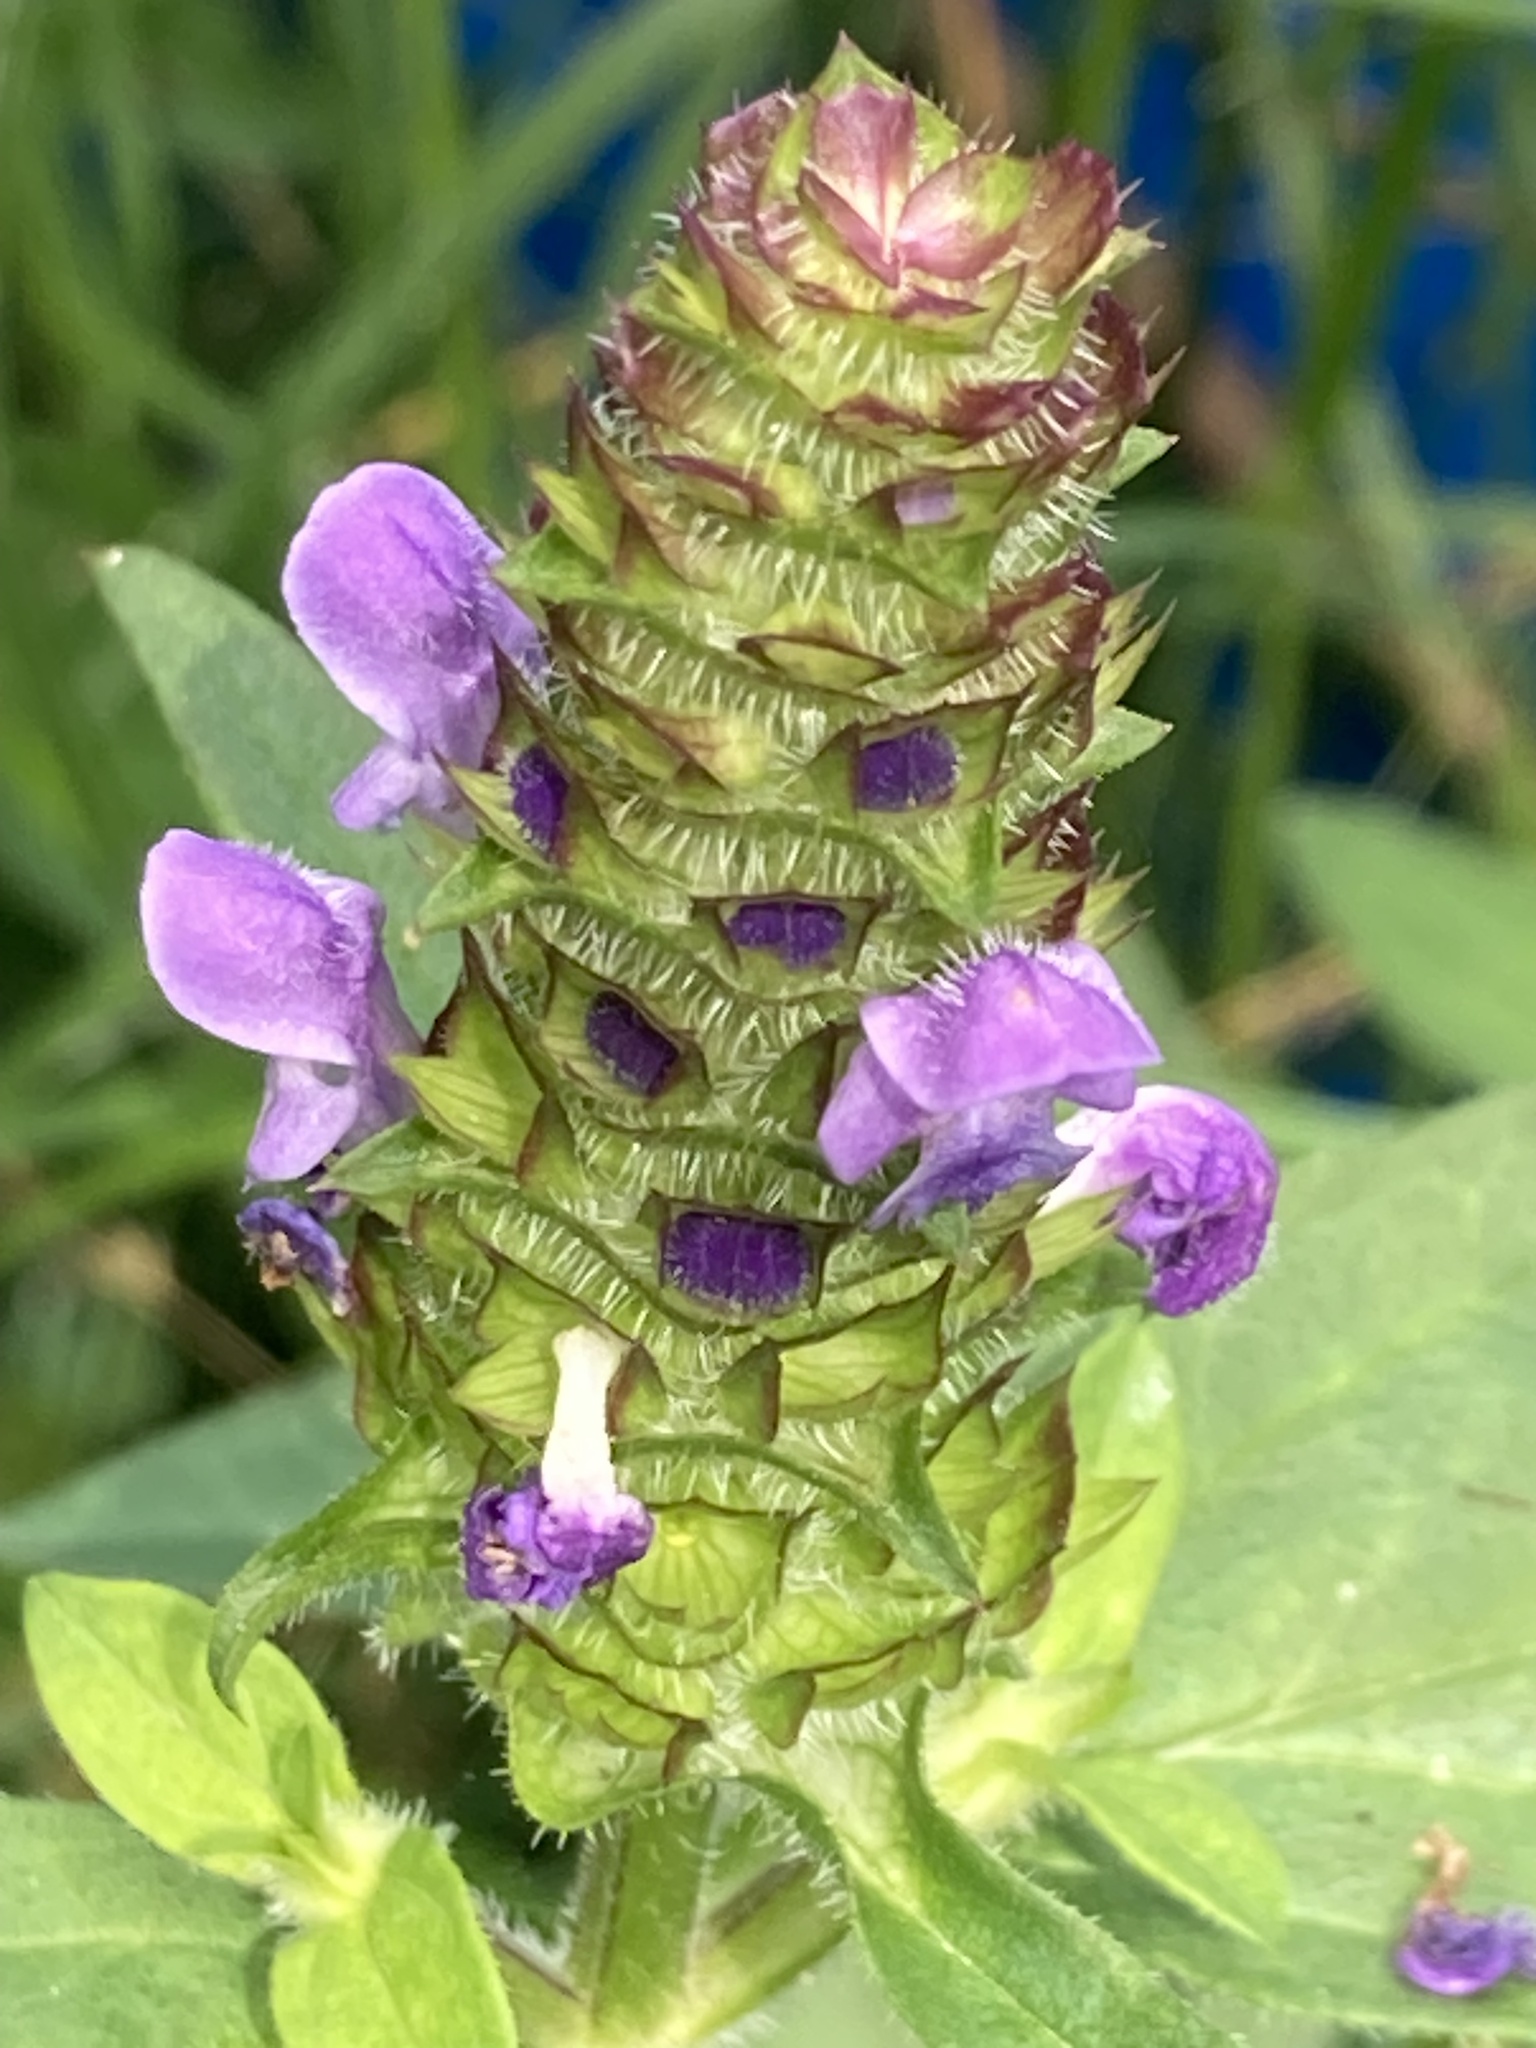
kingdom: Plantae
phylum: Tracheophyta
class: Magnoliopsida
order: Lamiales
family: Lamiaceae
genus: Prunella
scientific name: Prunella vulgaris
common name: Heal-all
